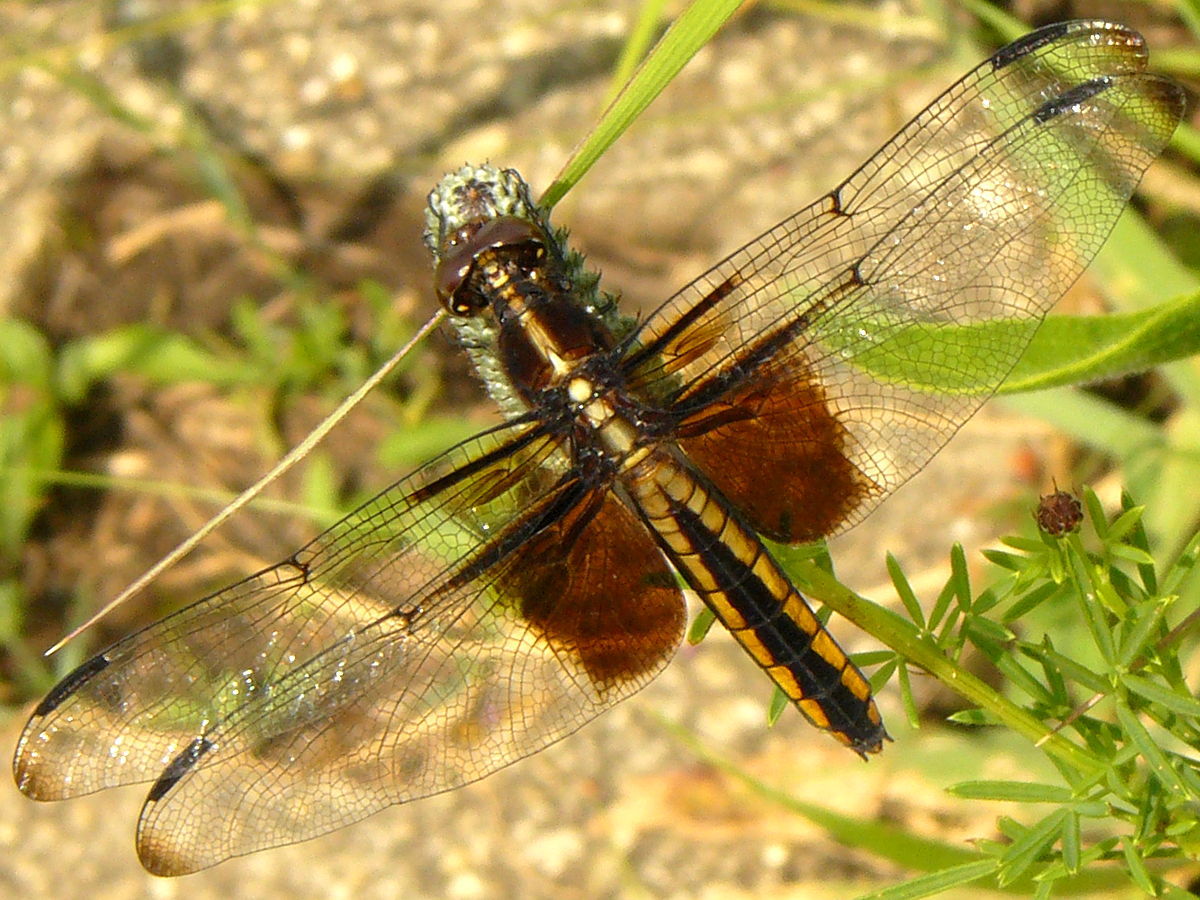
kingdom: Animalia
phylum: Arthropoda
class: Insecta
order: Odonata
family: Libellulidae
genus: Libellula
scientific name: Libellula luctuosa
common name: Widow skimmer
